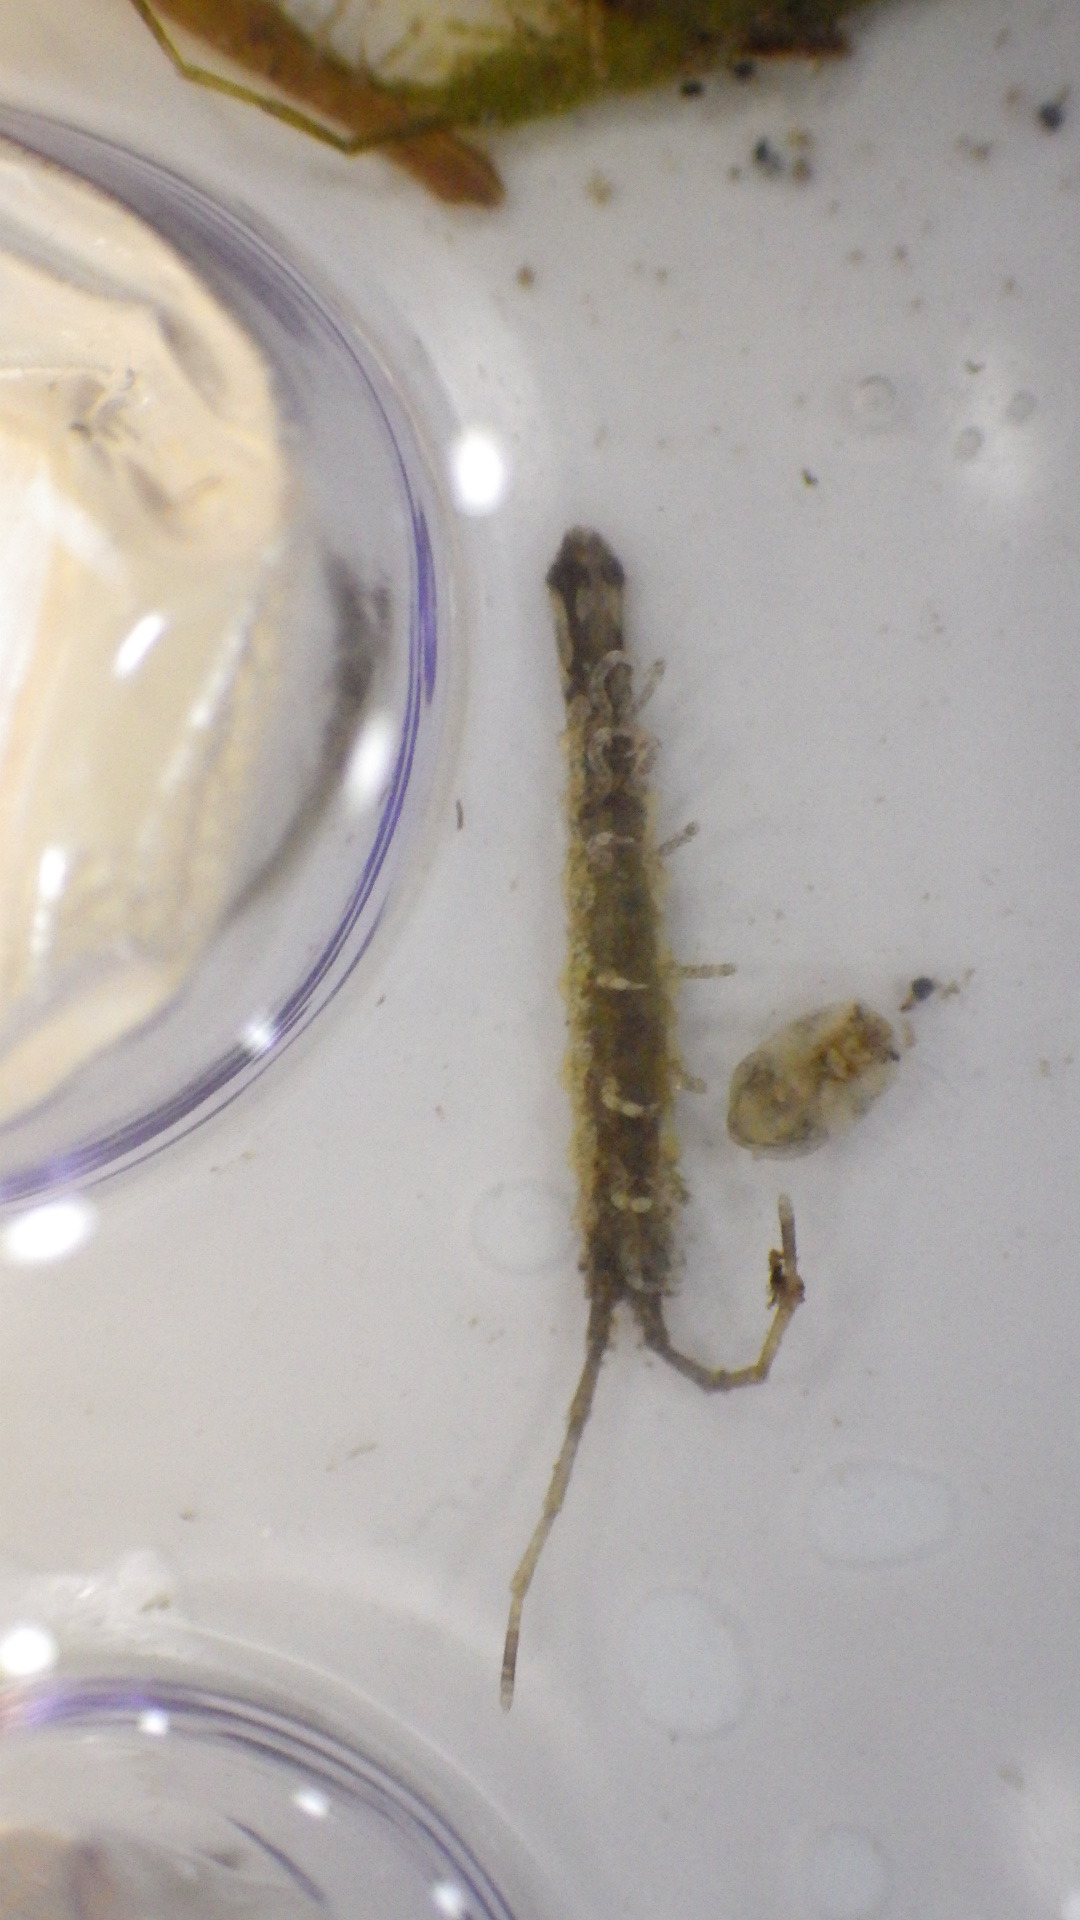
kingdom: Animalia
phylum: Arthropoda
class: Malacostraca
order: Isopoda
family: Idoteidae
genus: Erichsonella
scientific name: Erichsonella attenuata
